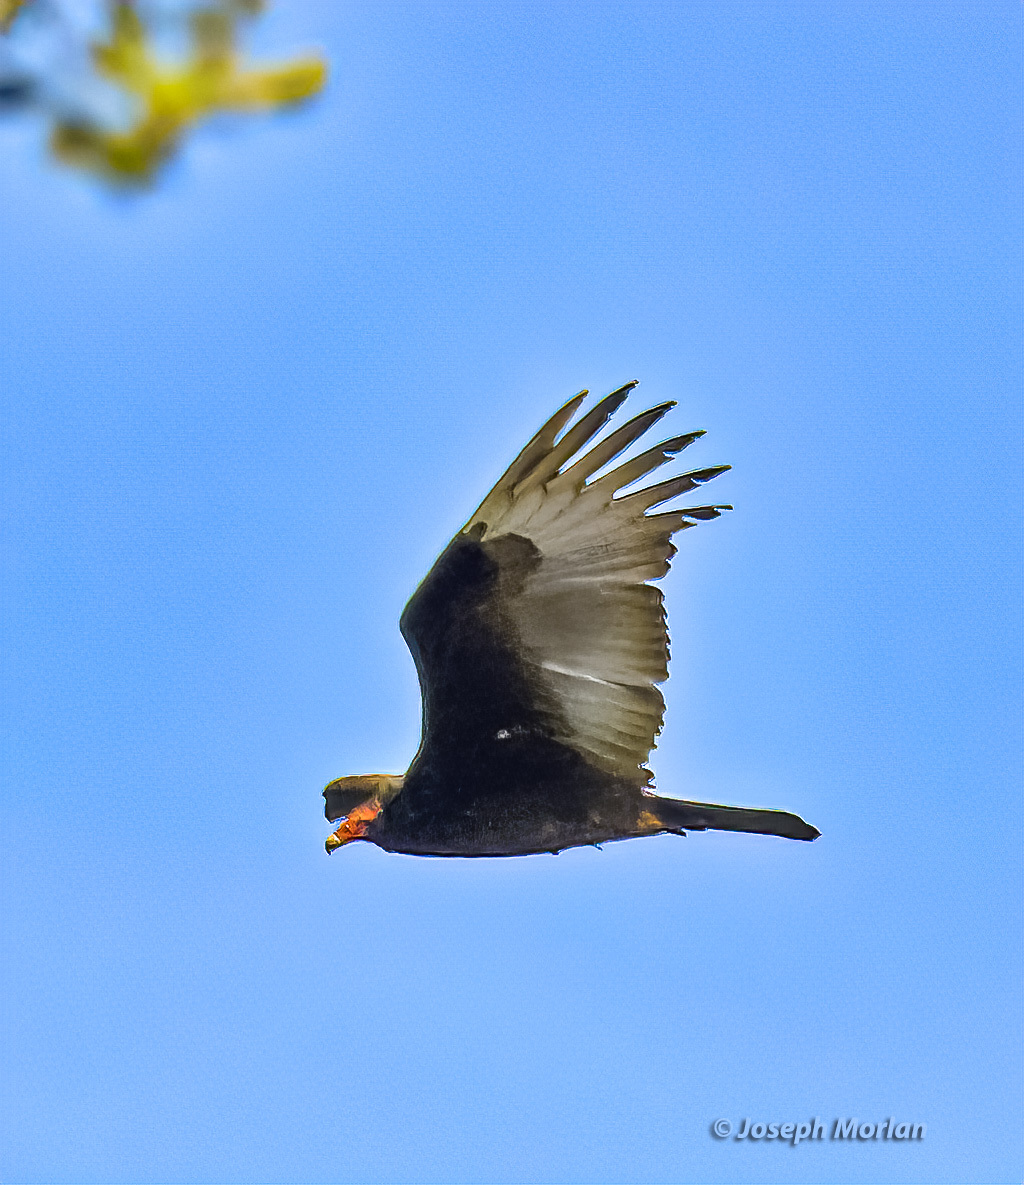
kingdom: Animalia
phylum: Chordata
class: Aves
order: Accipitriformes
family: Cathartidae
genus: Cathartes
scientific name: Cathartes aura
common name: Turkey vulture
